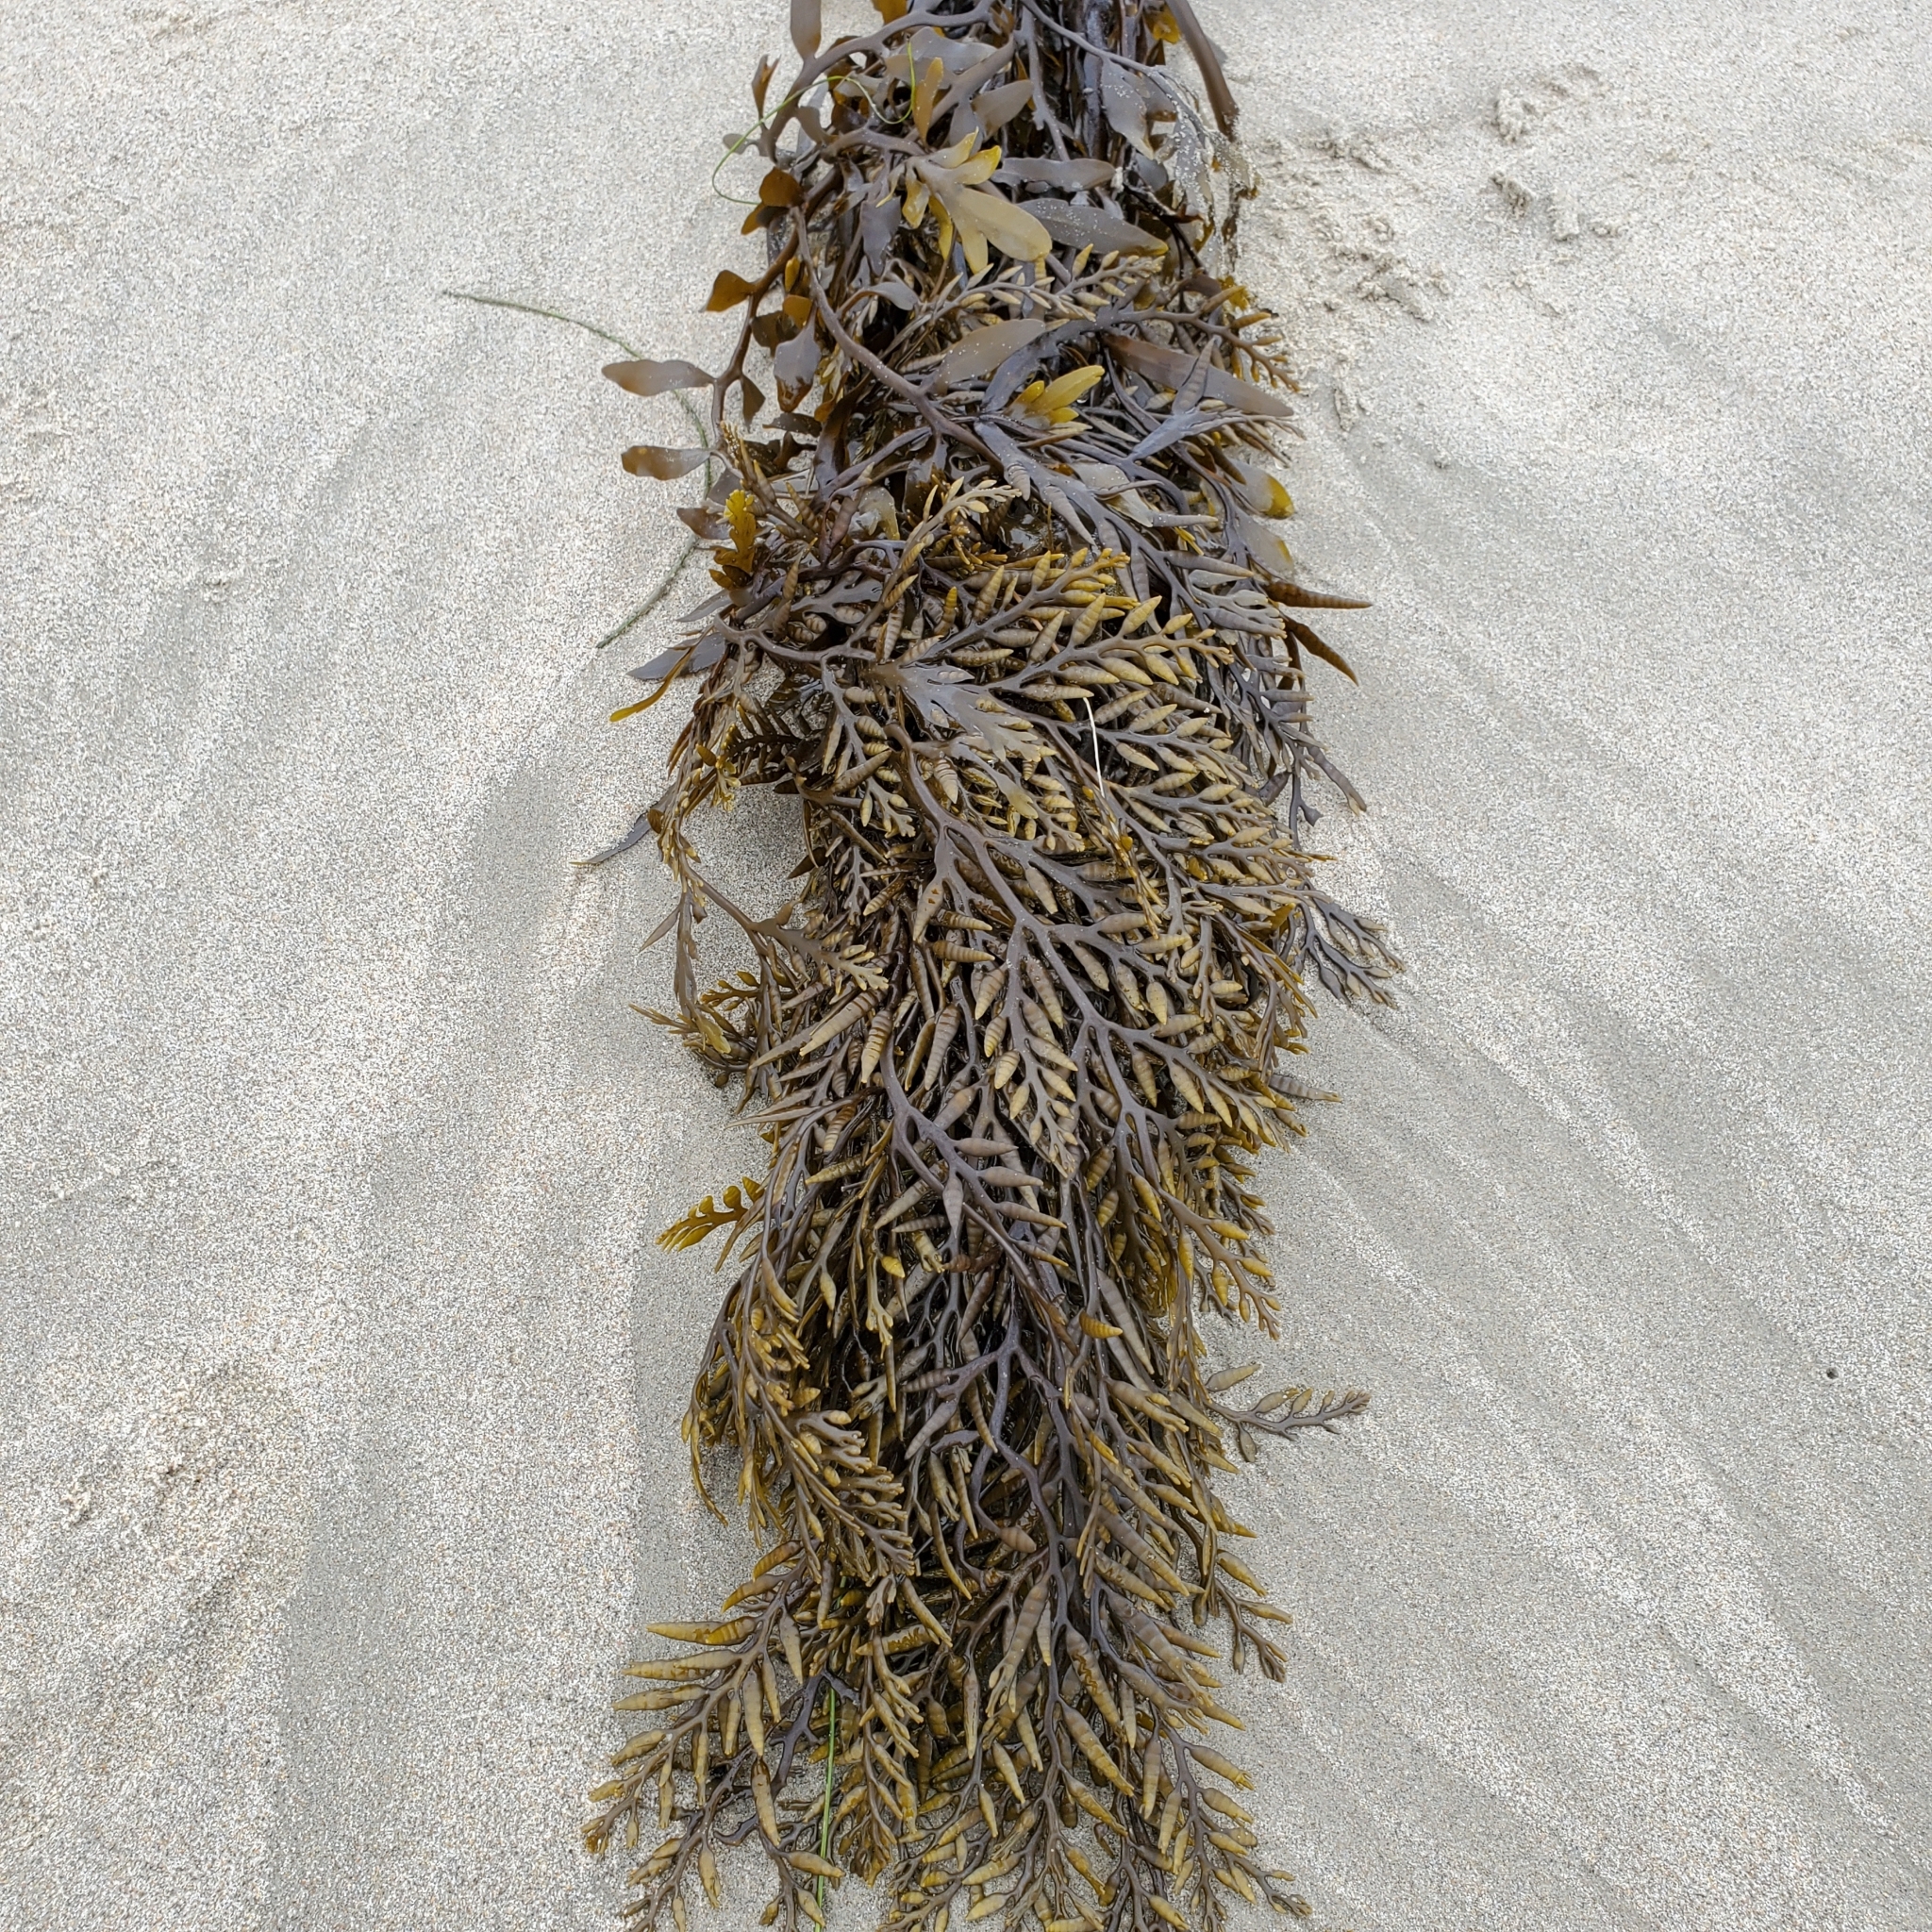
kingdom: Chromista
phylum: Ochrophyta
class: Phaeophyceae
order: Fucales
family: Sargassaceae
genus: Stephanocystis
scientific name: Stephanocystis
